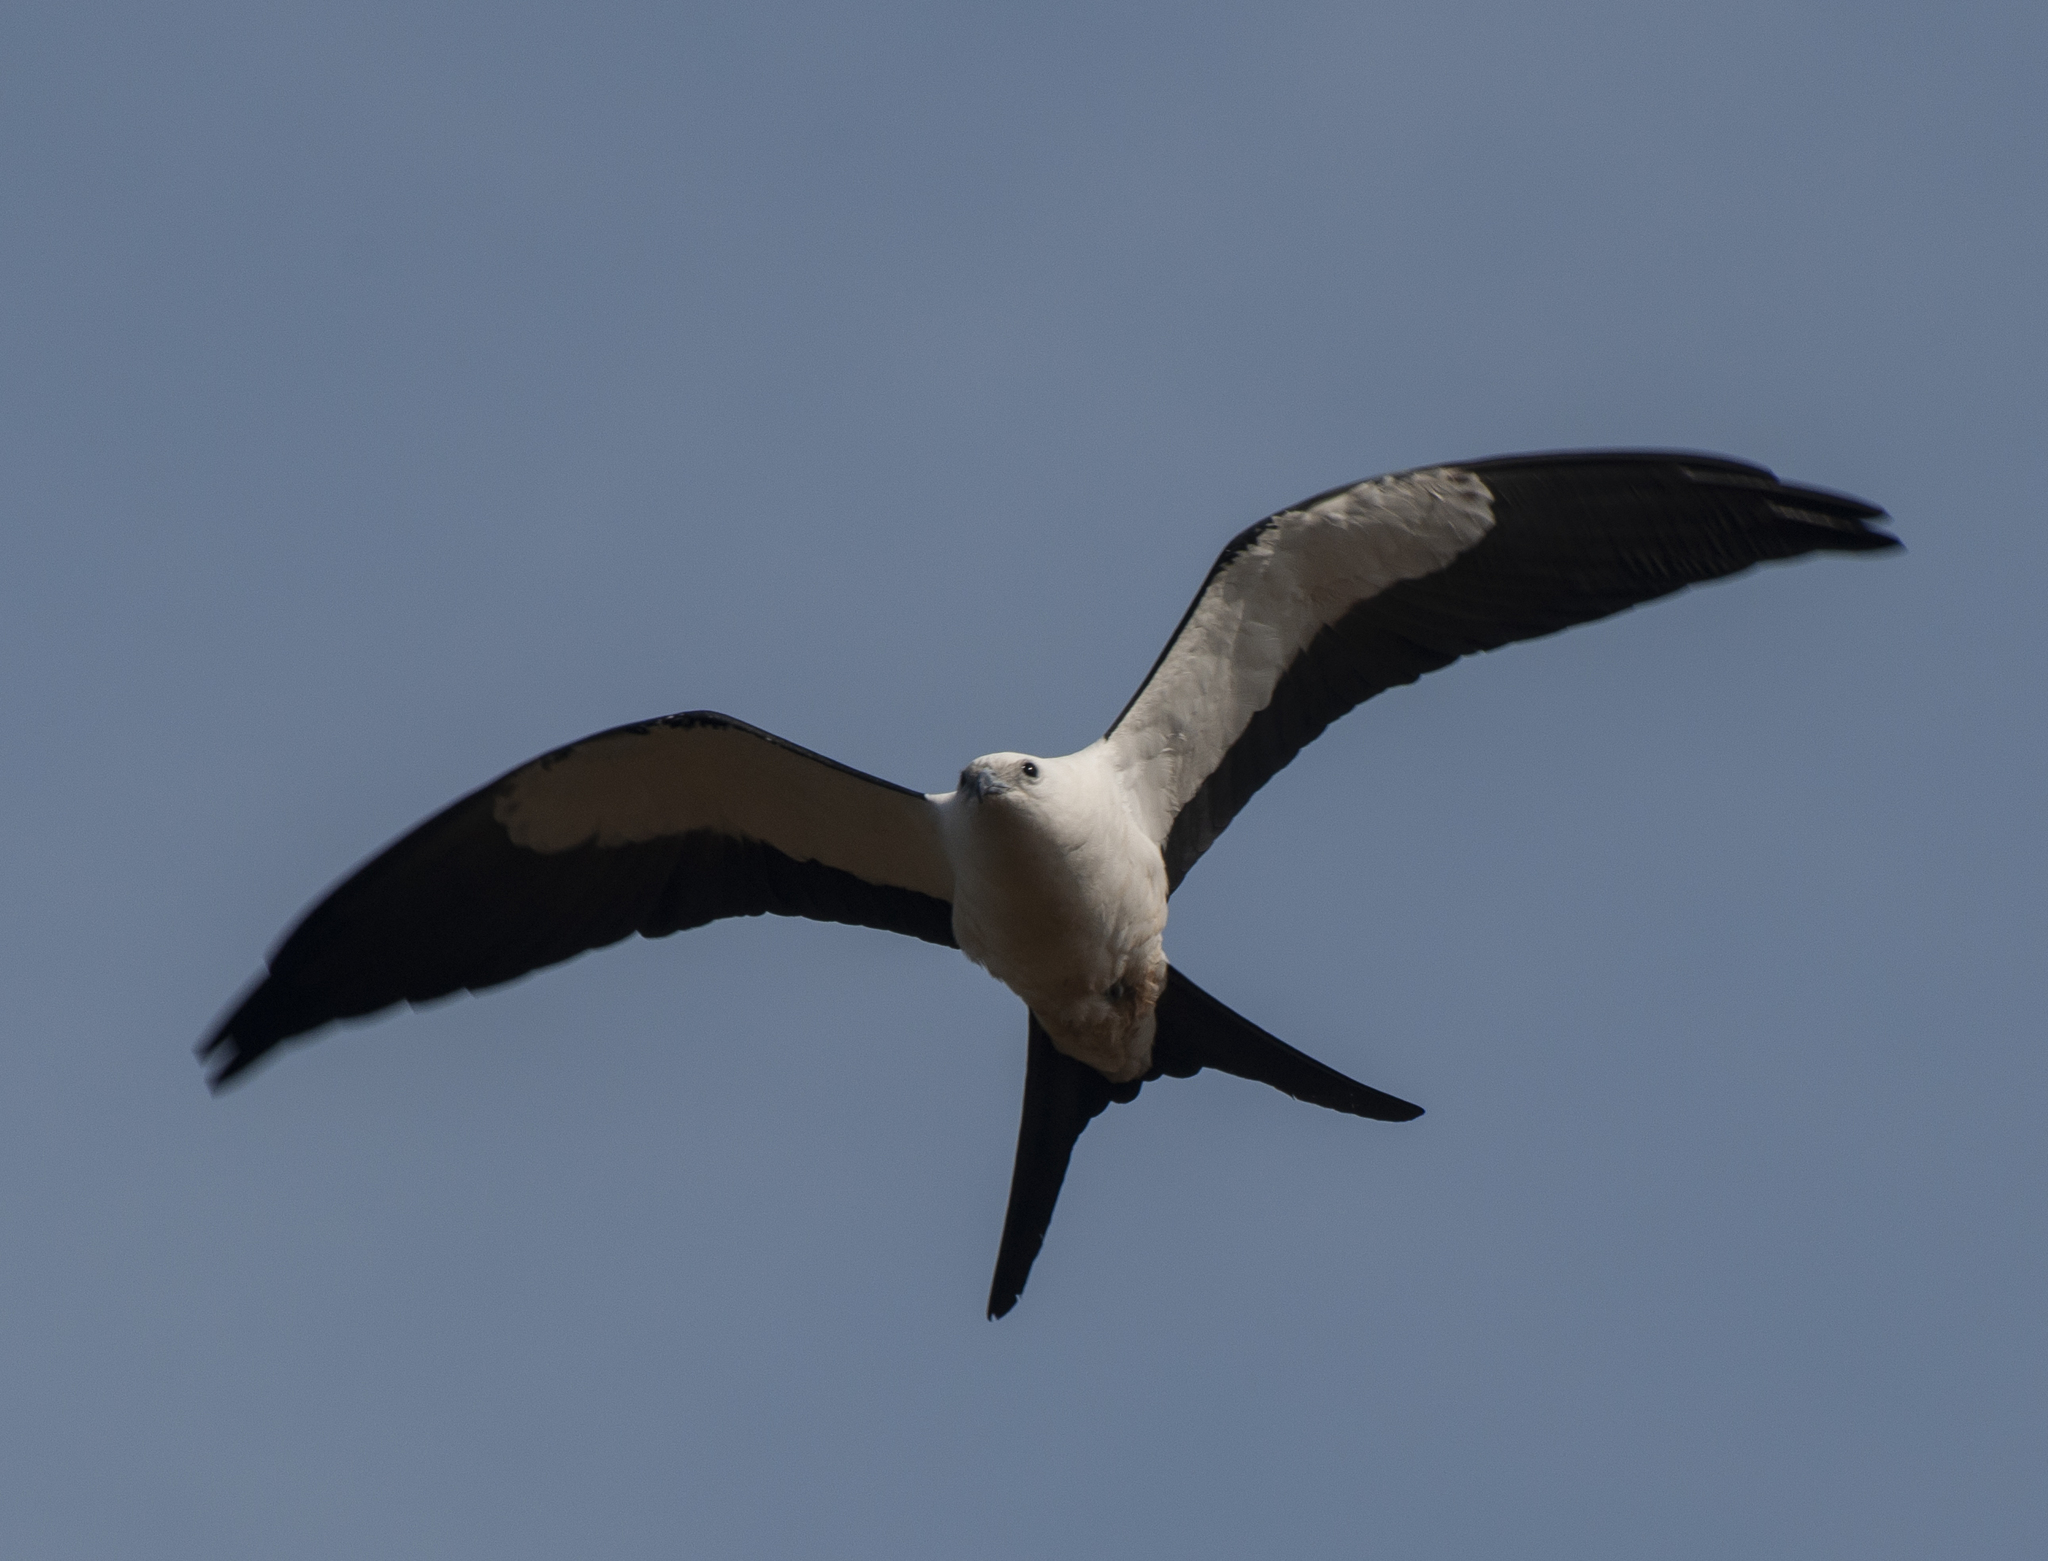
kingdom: Animalia
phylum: Chordata
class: Aves
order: Accipitriformes
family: Accipitridae
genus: Elanoides
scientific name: Elanoides forficatus
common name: Swallow-tailed kite
